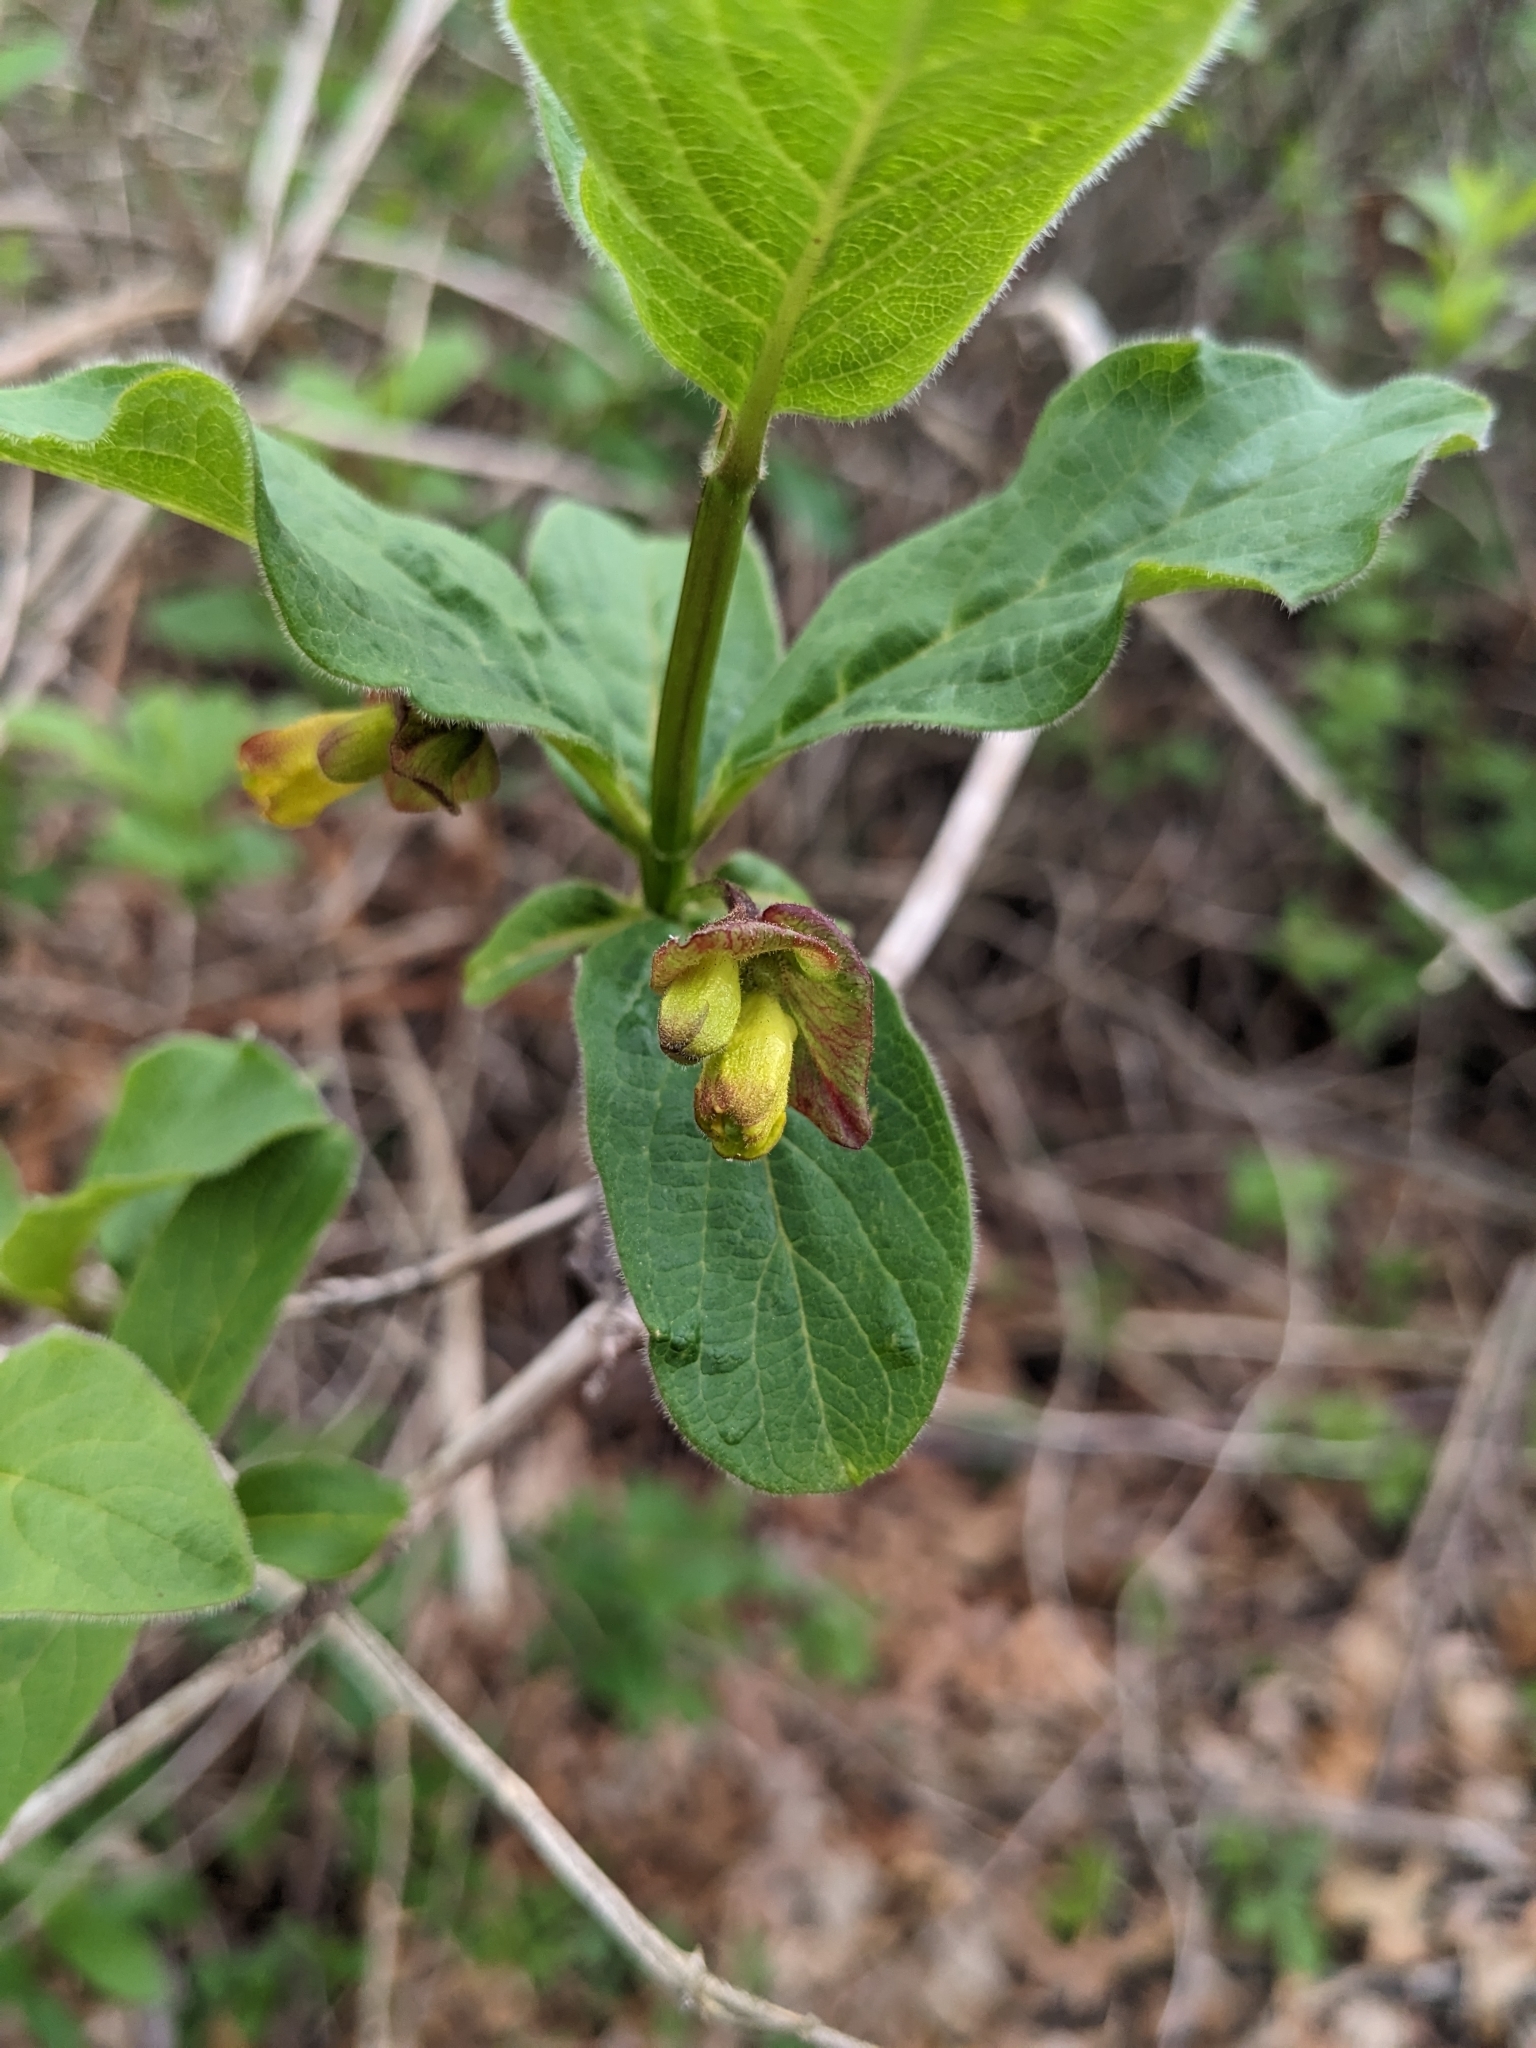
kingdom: Plantae
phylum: Tracheophyta
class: Magnoliopsida
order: Dipsacales
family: Caprifoliaceae
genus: Lonicera
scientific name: Lonicera involucrata
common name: Californian honeysuckle
